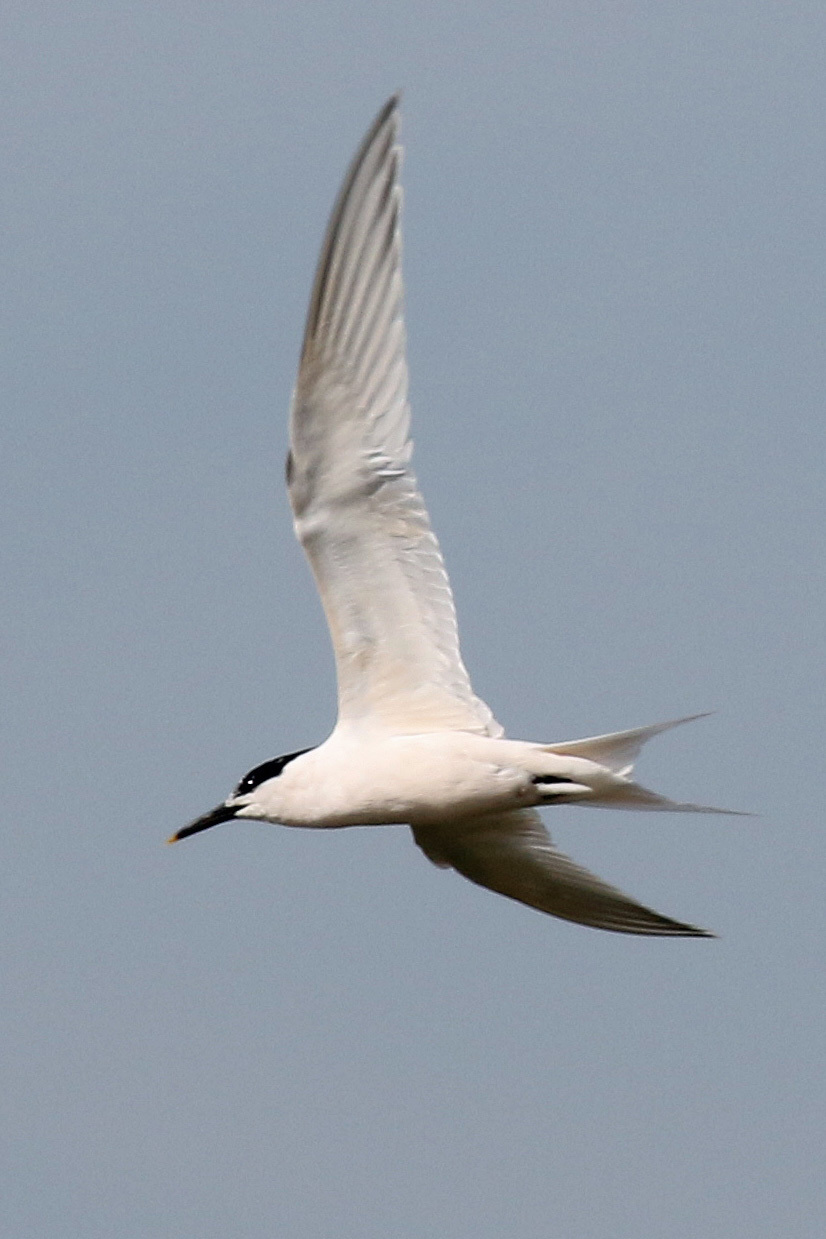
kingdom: Animalia
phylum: Chordata
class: Aves
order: Charadriiformes
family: Laridae
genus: Thalasseus
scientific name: Thalasseus sandvicensis
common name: Sandwich tern
